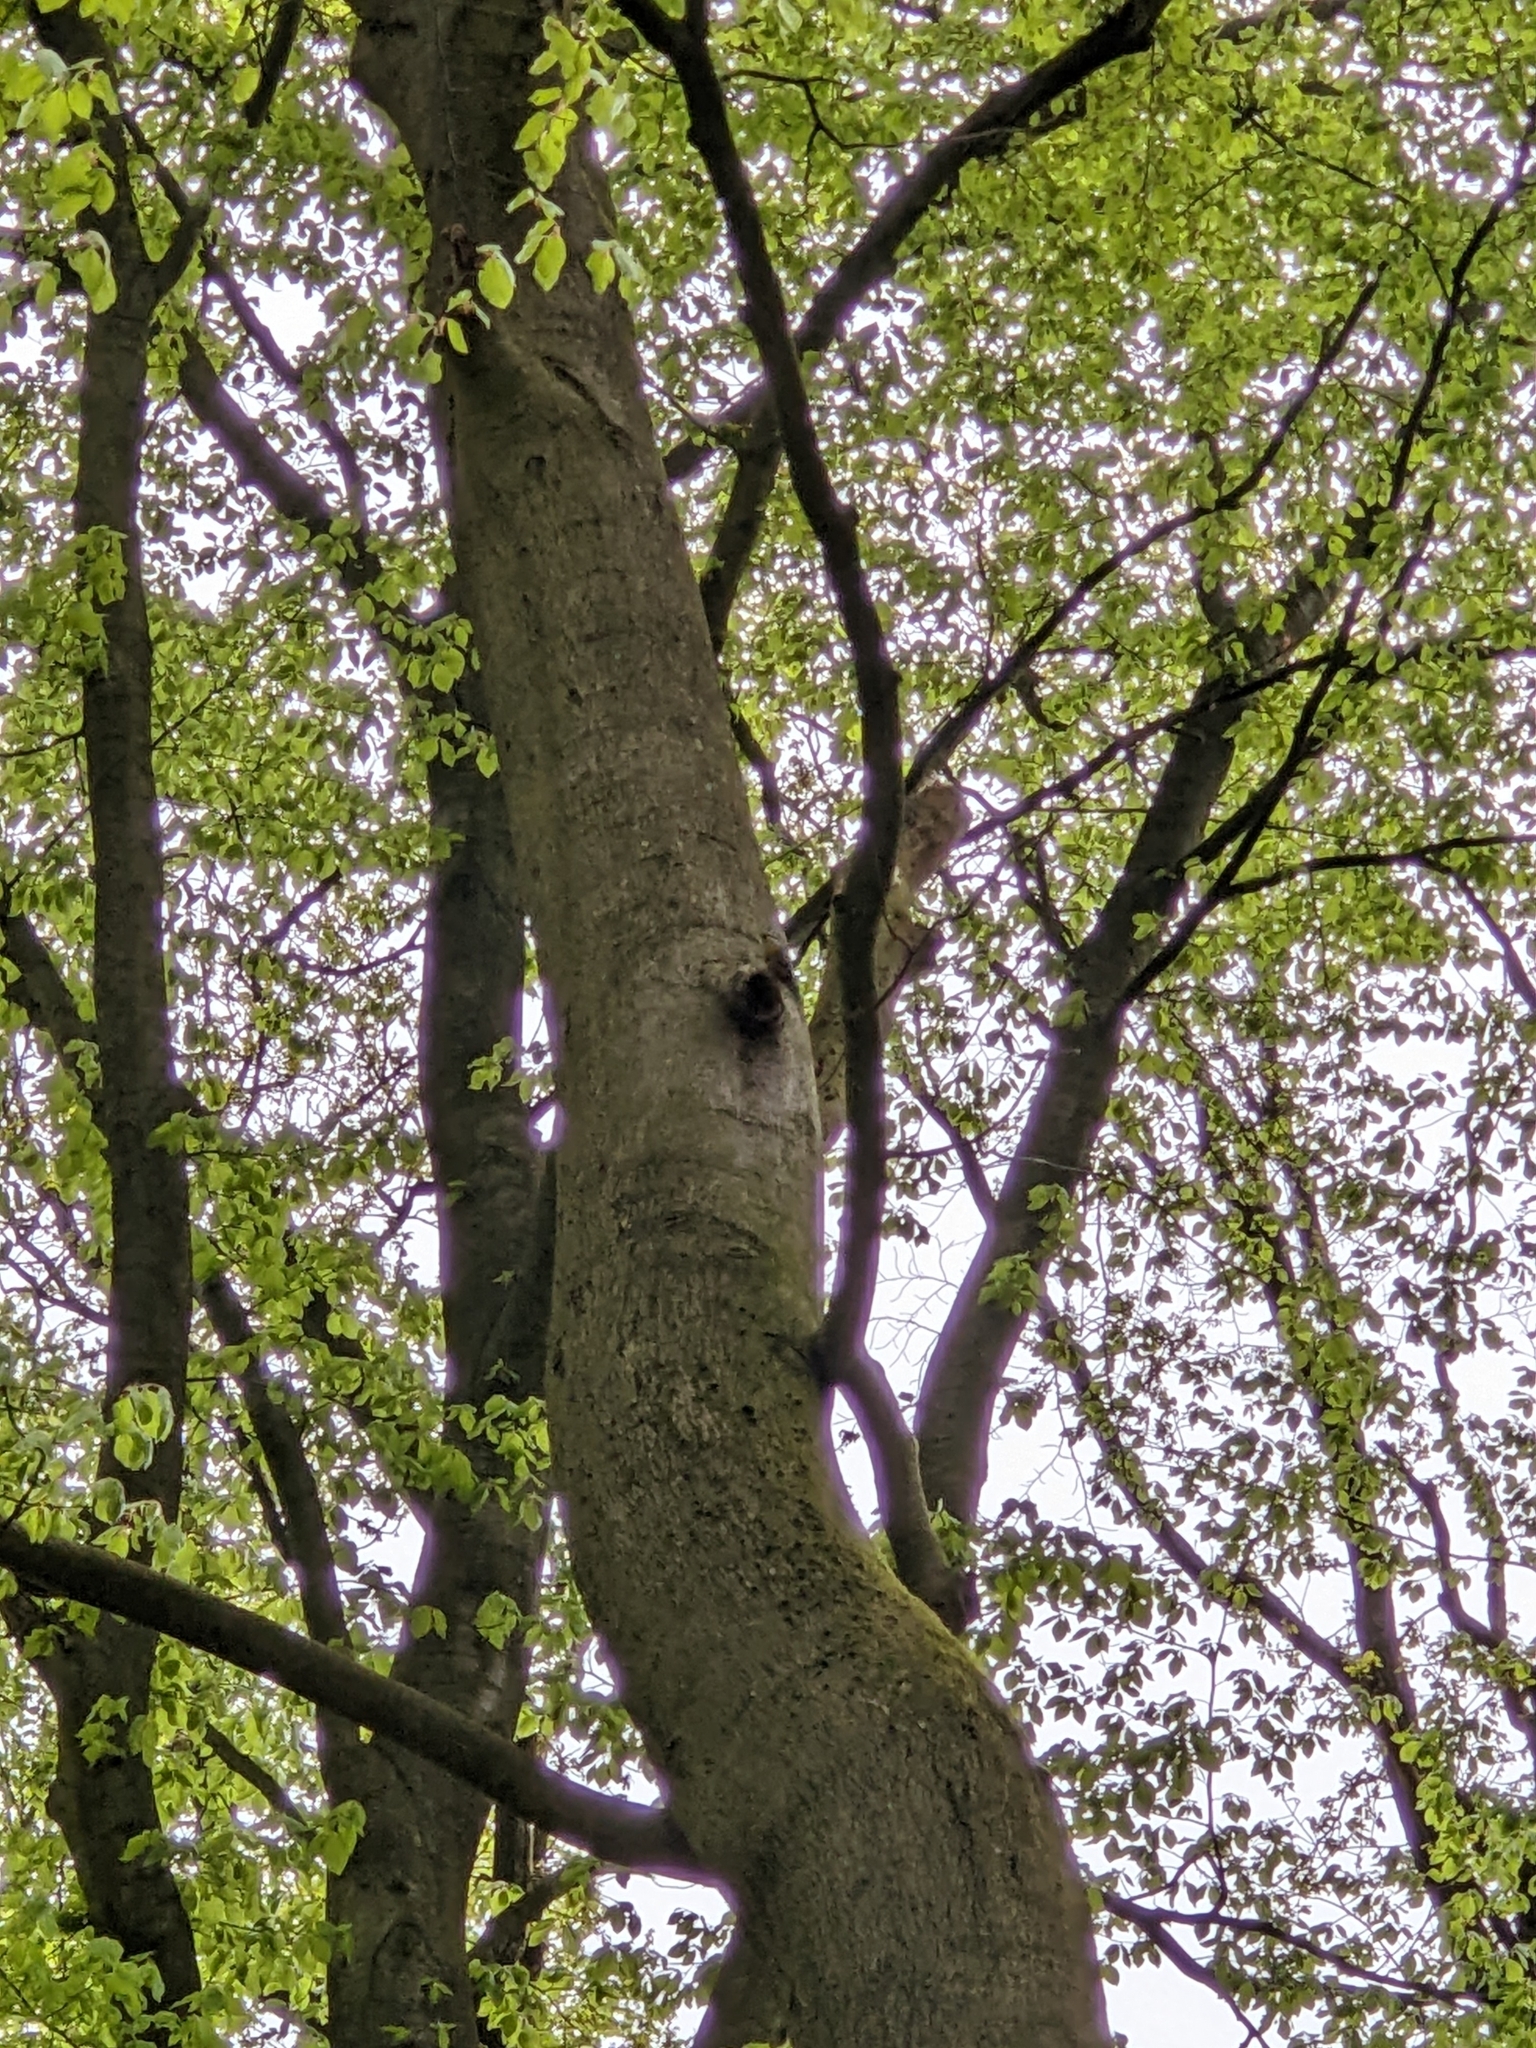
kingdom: Animalia
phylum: Chordata
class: Aves
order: Passeriformes
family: Sittidae
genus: Sitta
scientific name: Sitta europaea
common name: Eurasian nuthatch
